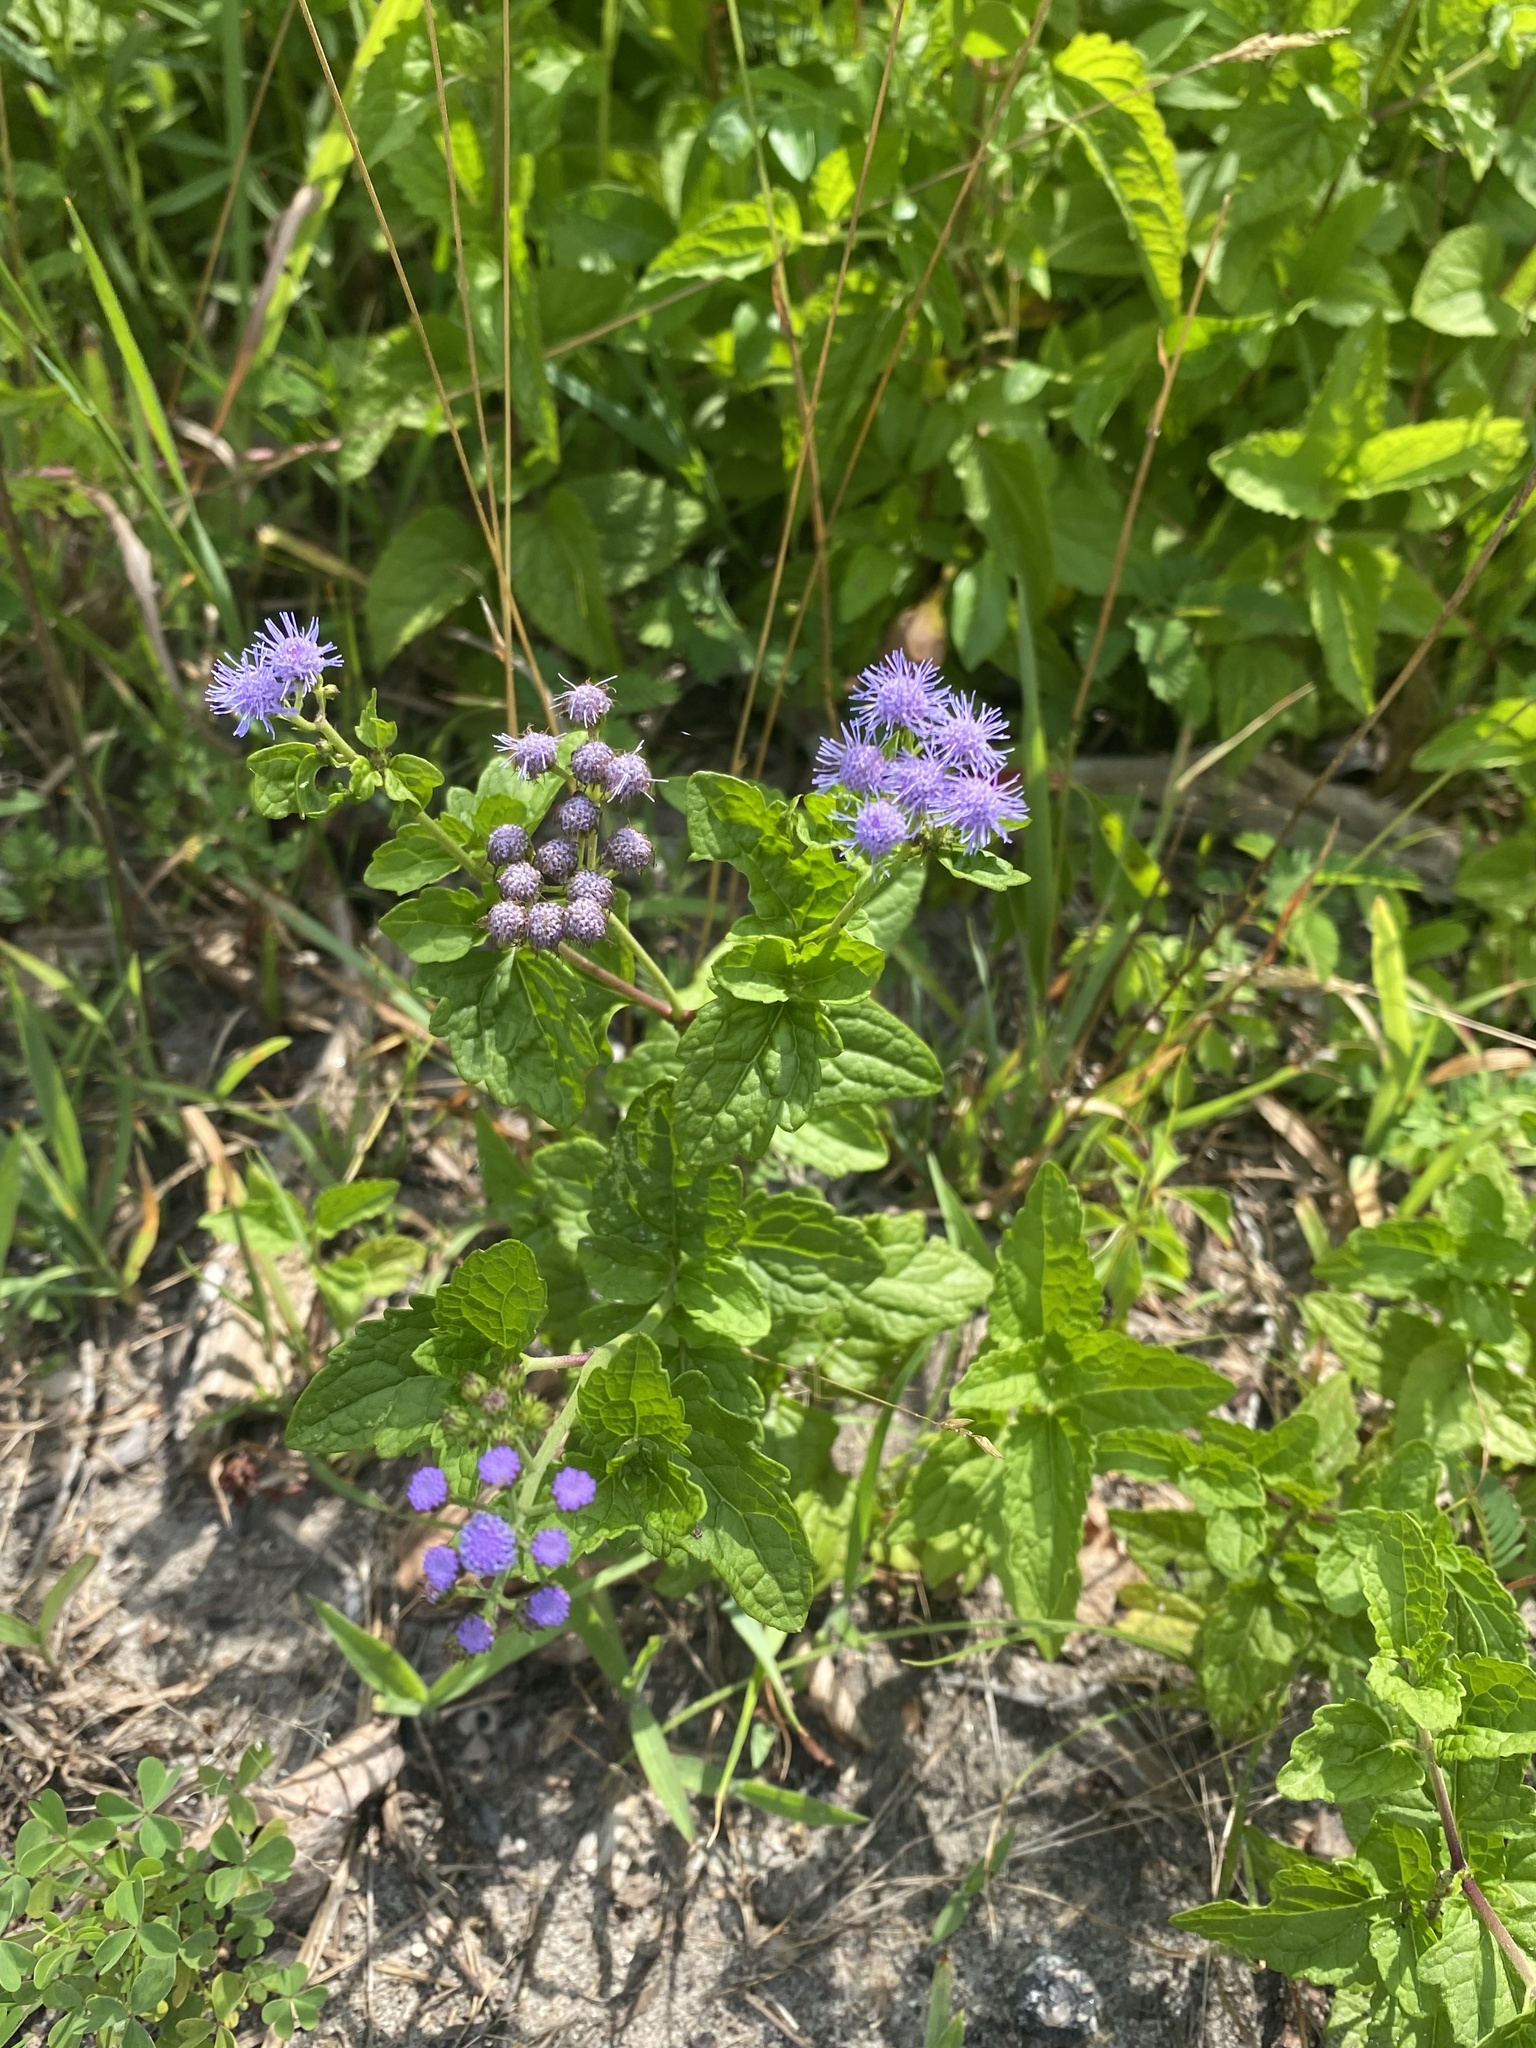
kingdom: Plantae
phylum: Tracheophyta
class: Magnoliopsida
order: Asterales
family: Asteraceae
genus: Conoclinium
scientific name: Conoclinium coelestinum
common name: Blue mistflower
